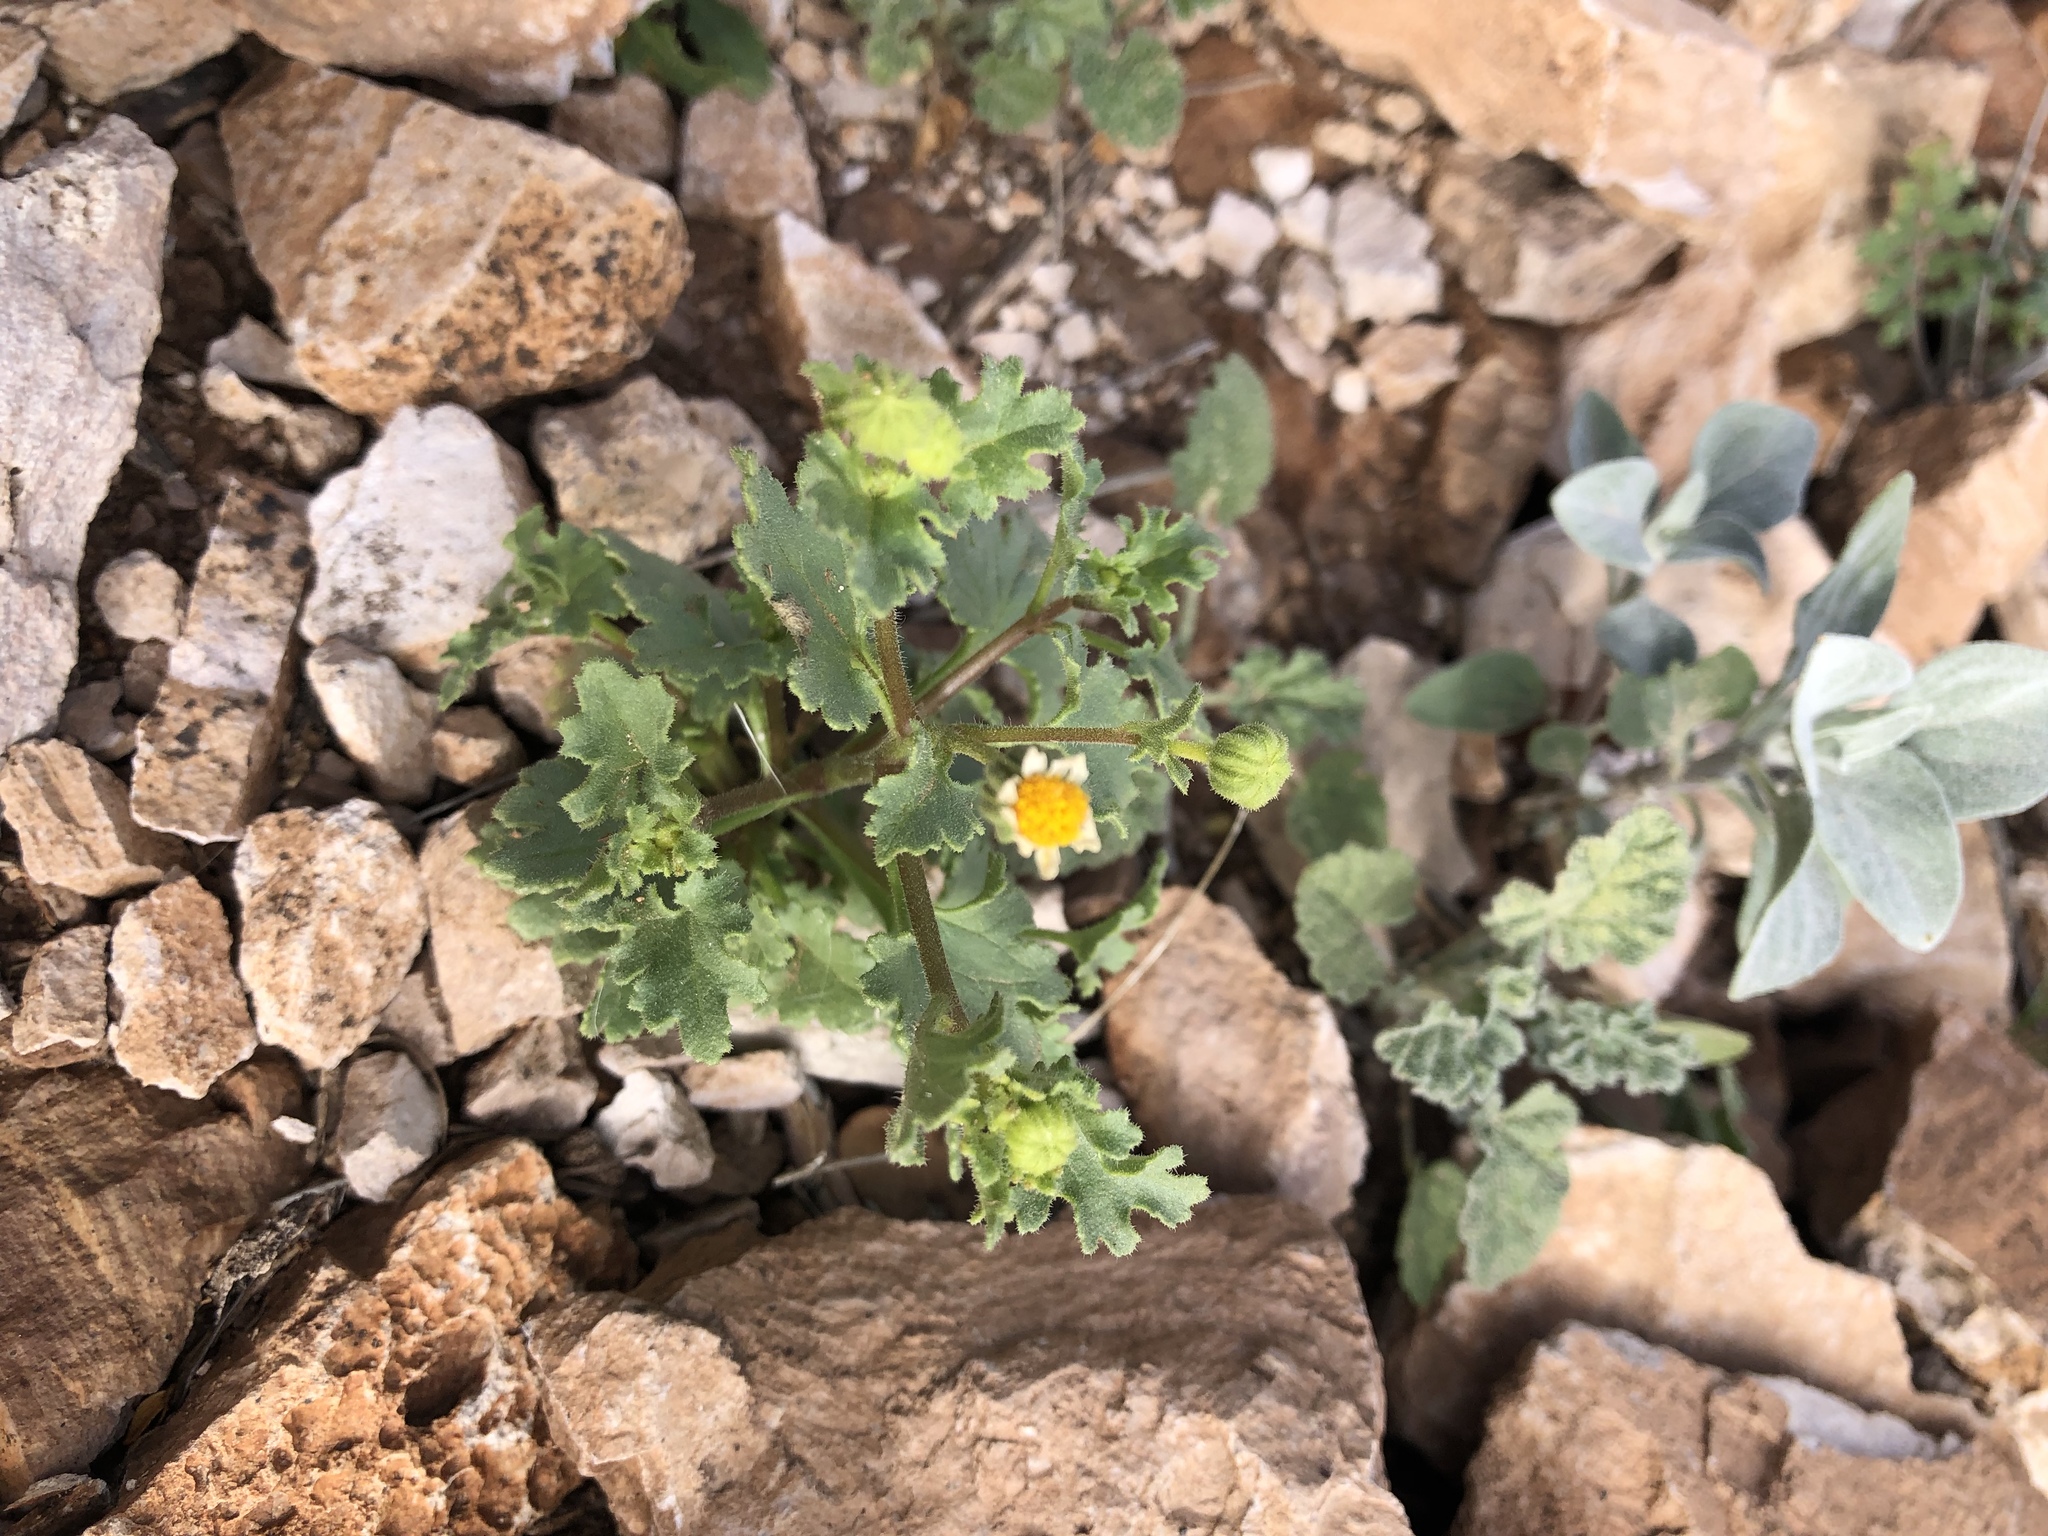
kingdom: Plantae
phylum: Tracheophyta
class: Magnoliopsida
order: Asterales
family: Asteraceae
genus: Laphamia
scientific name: Laphamia emoryi
